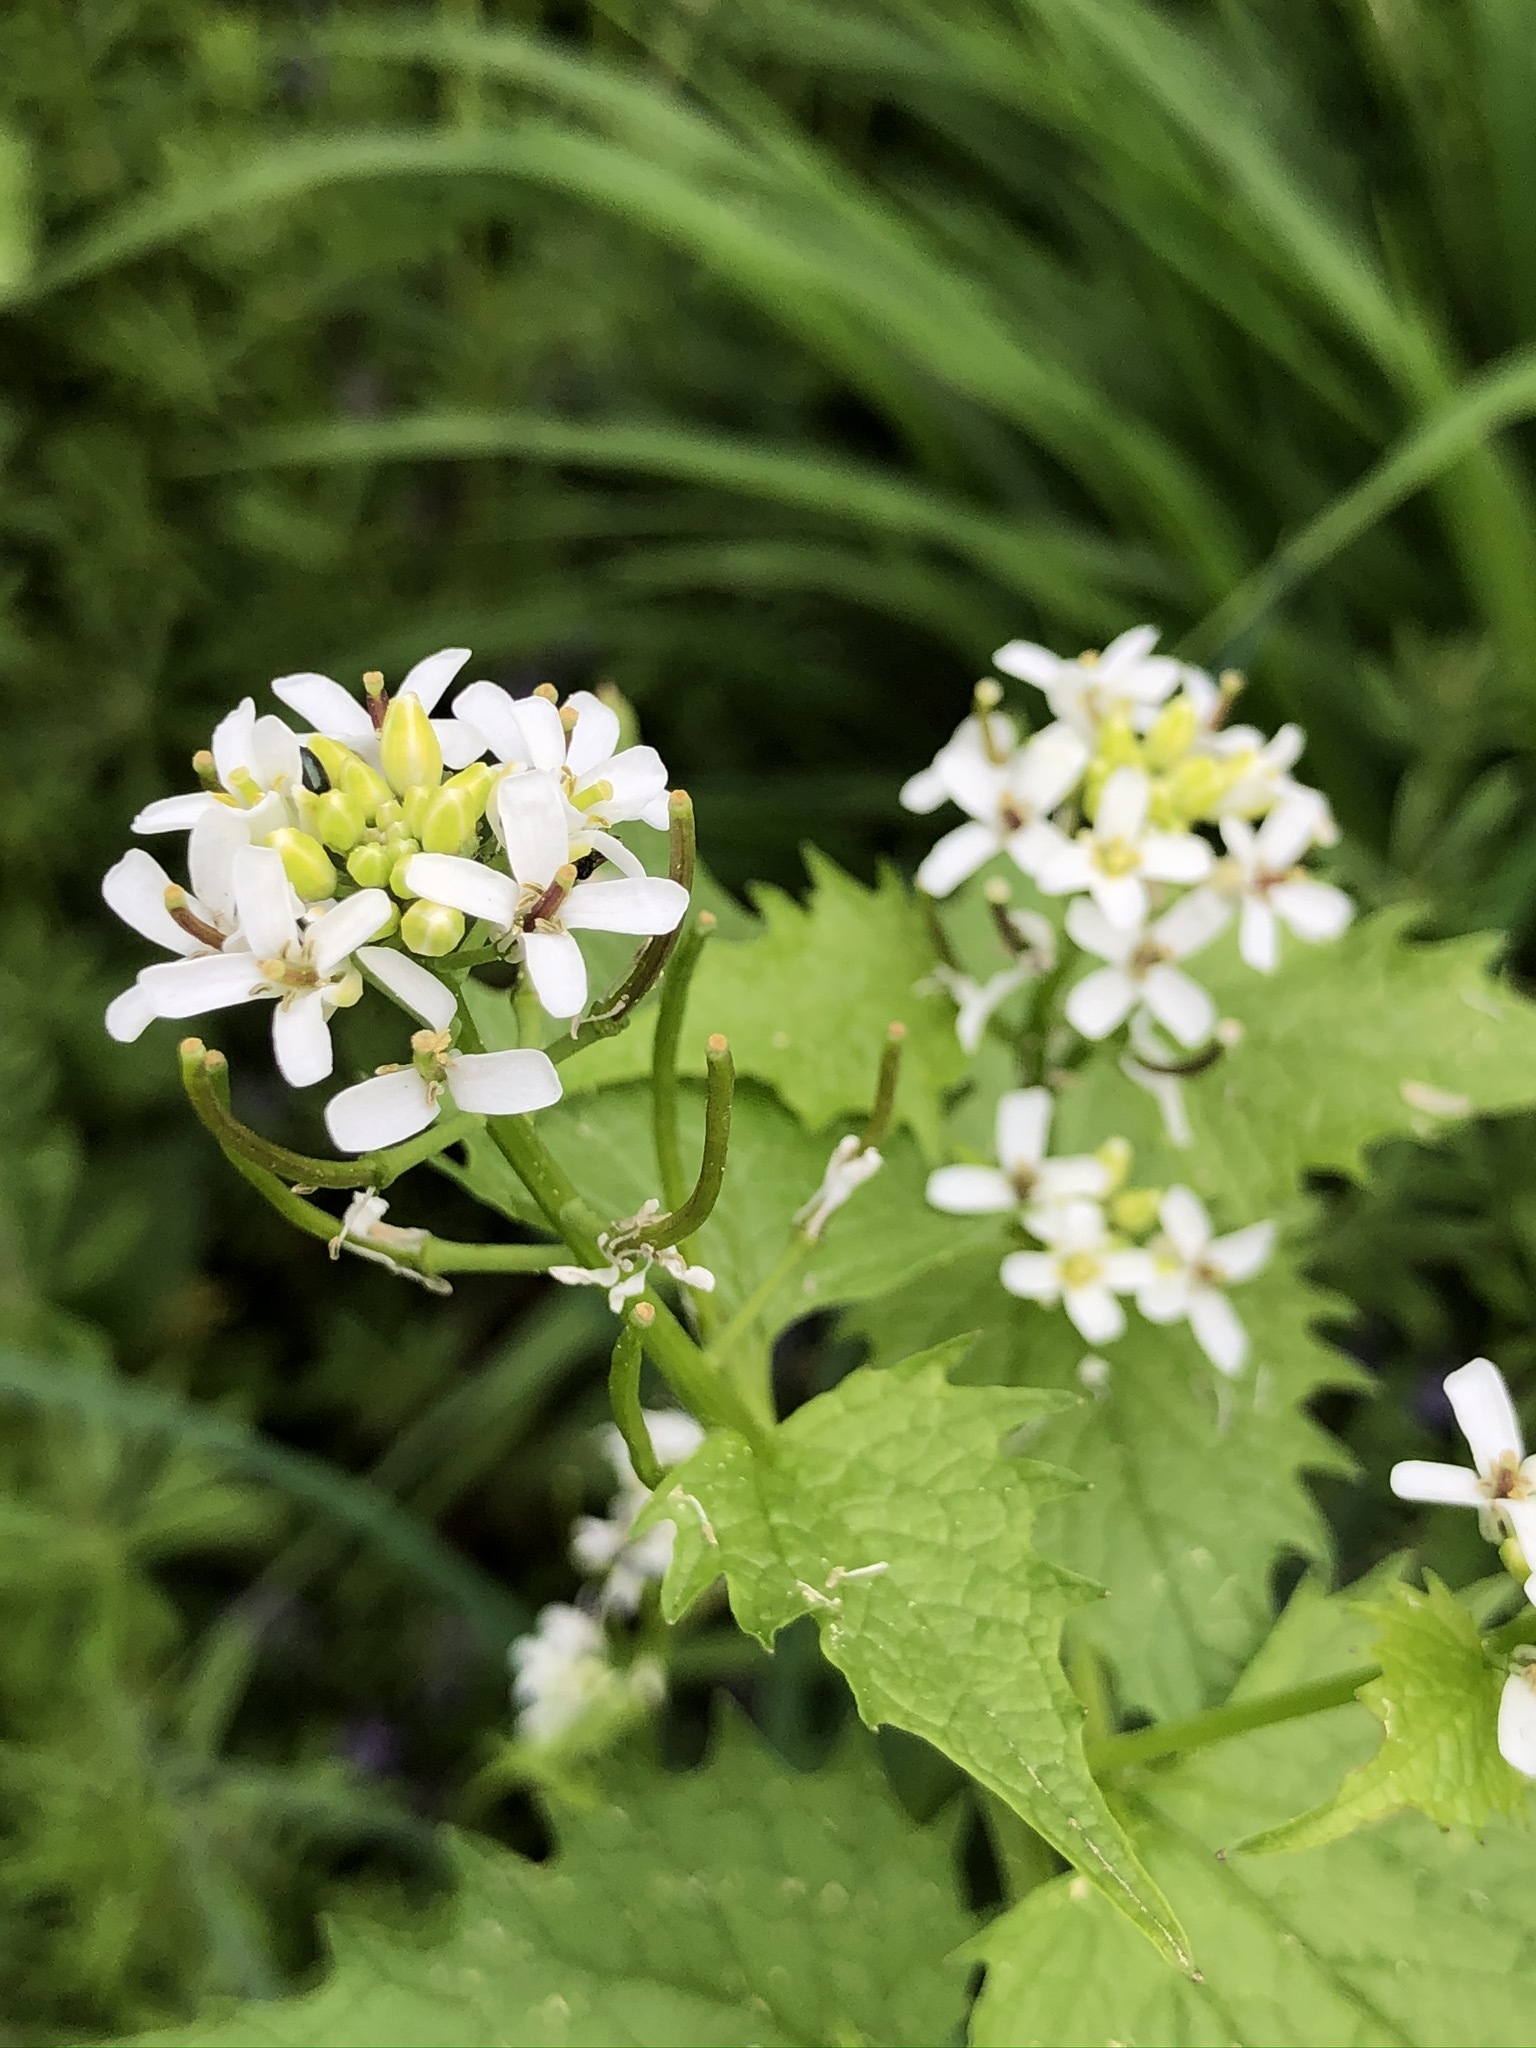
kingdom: Plantae
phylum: Tracheophyta
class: Magnoliopsida
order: Brassicales
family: Brassicaceae
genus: Alliaria
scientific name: Alliaria petiolata
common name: Garlic mustard
